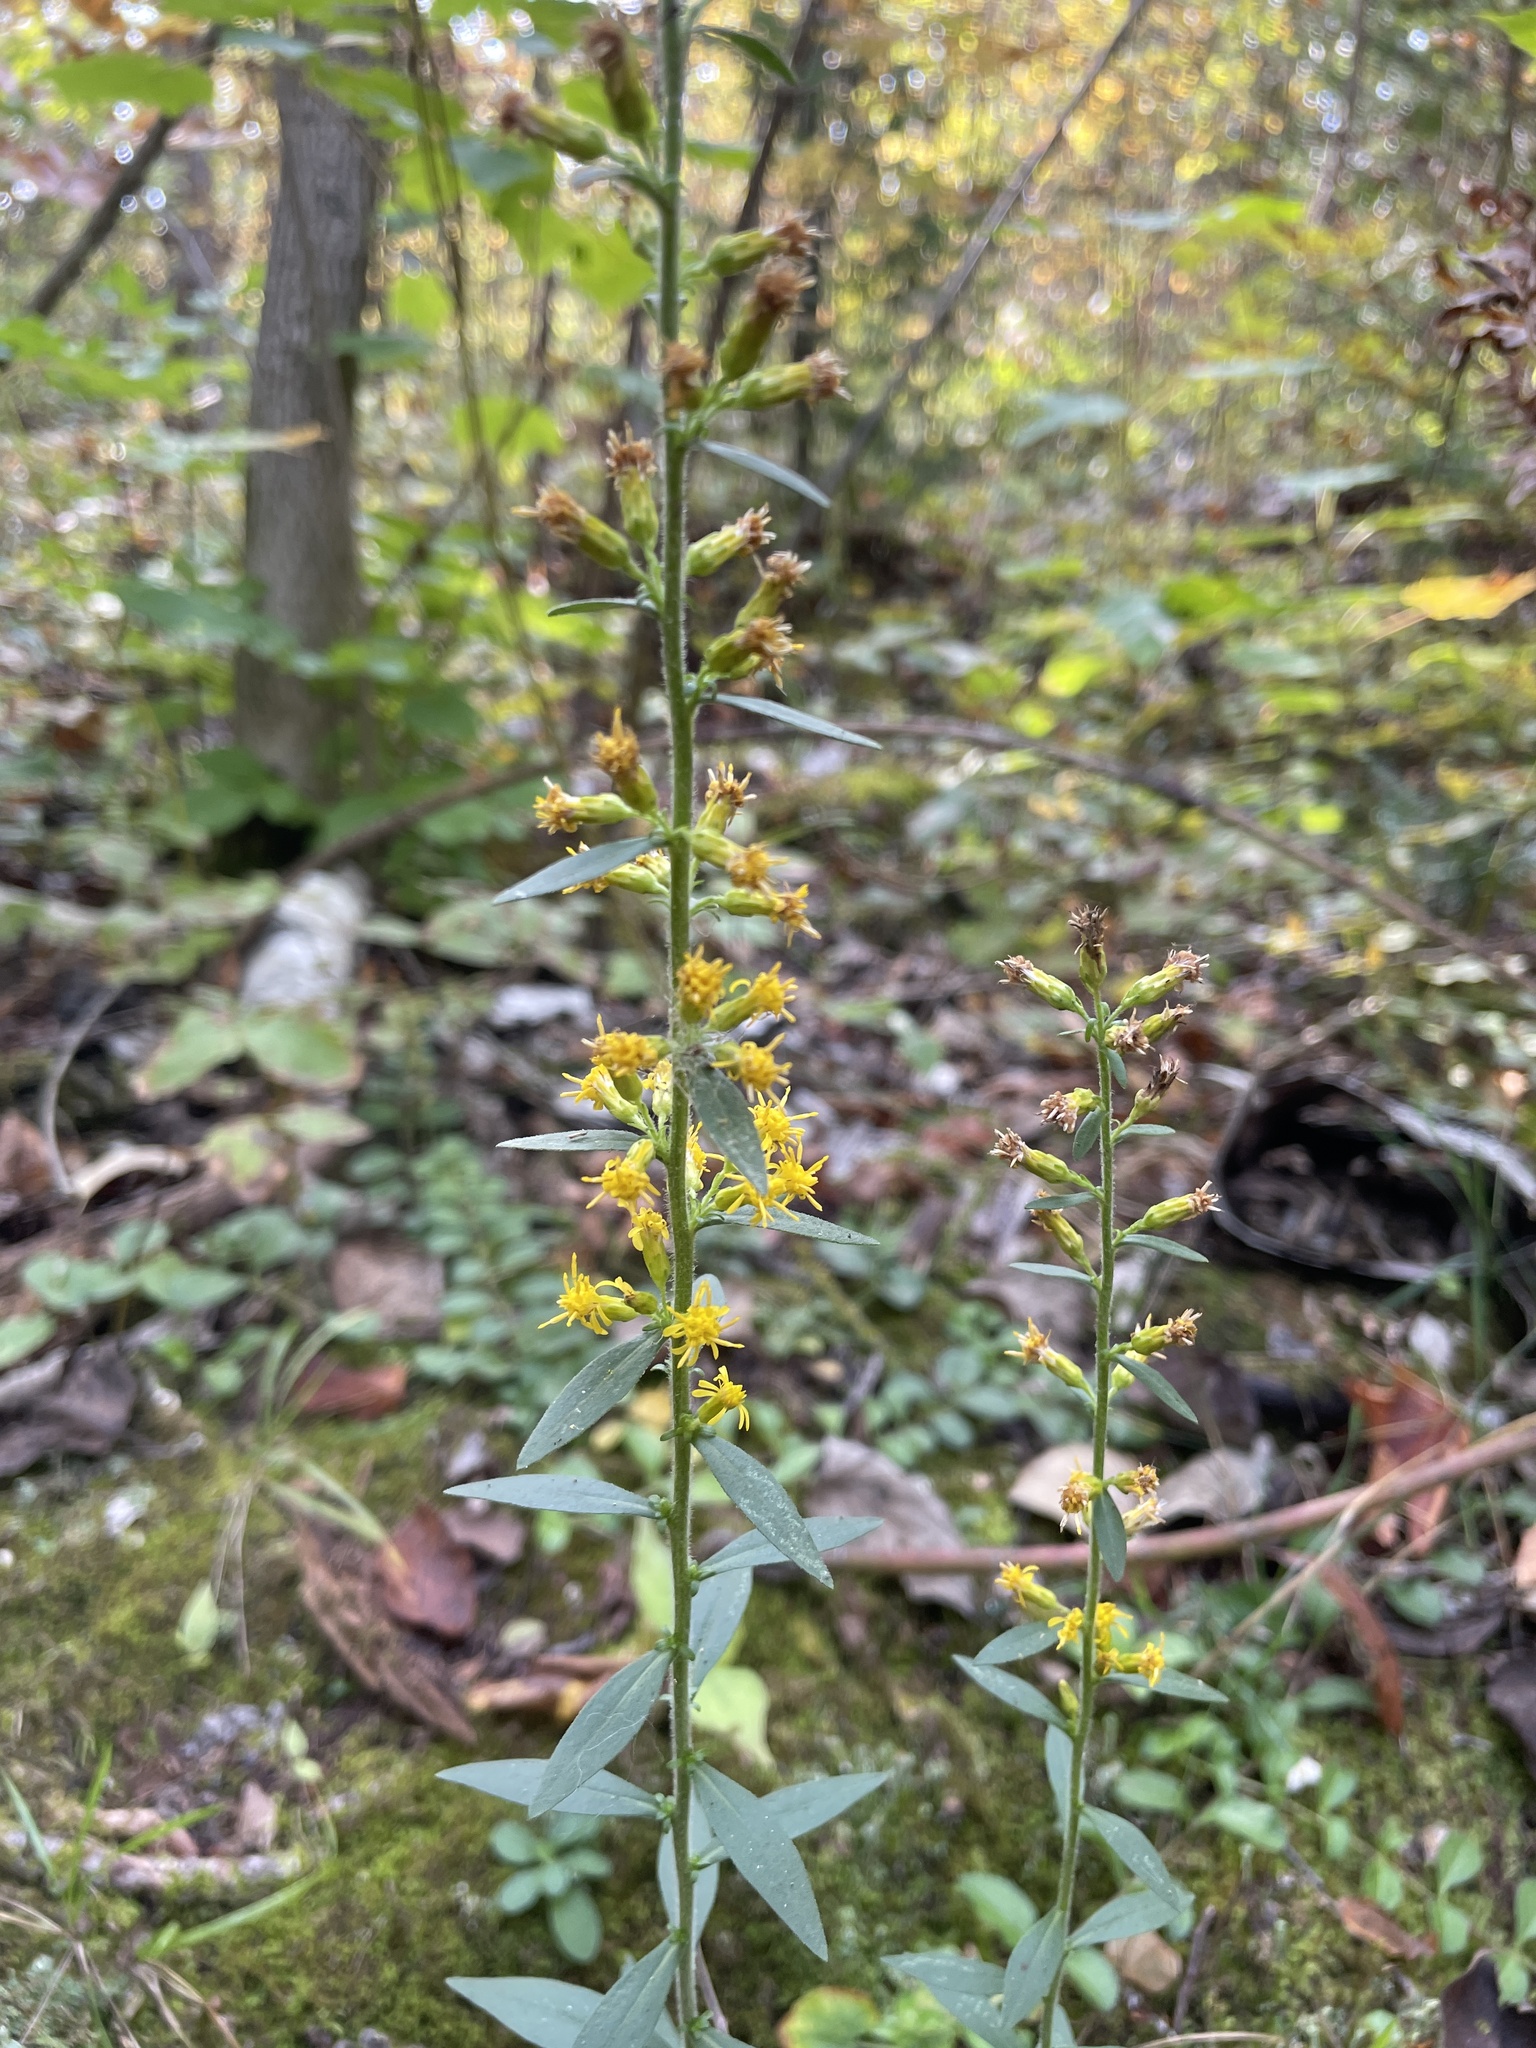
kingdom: Plantae
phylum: Tracheophyta
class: Magnoliopsida
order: Asterales
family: Asteraceae
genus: Solidago
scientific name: Solidago hispida
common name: Hairy goldenrod
